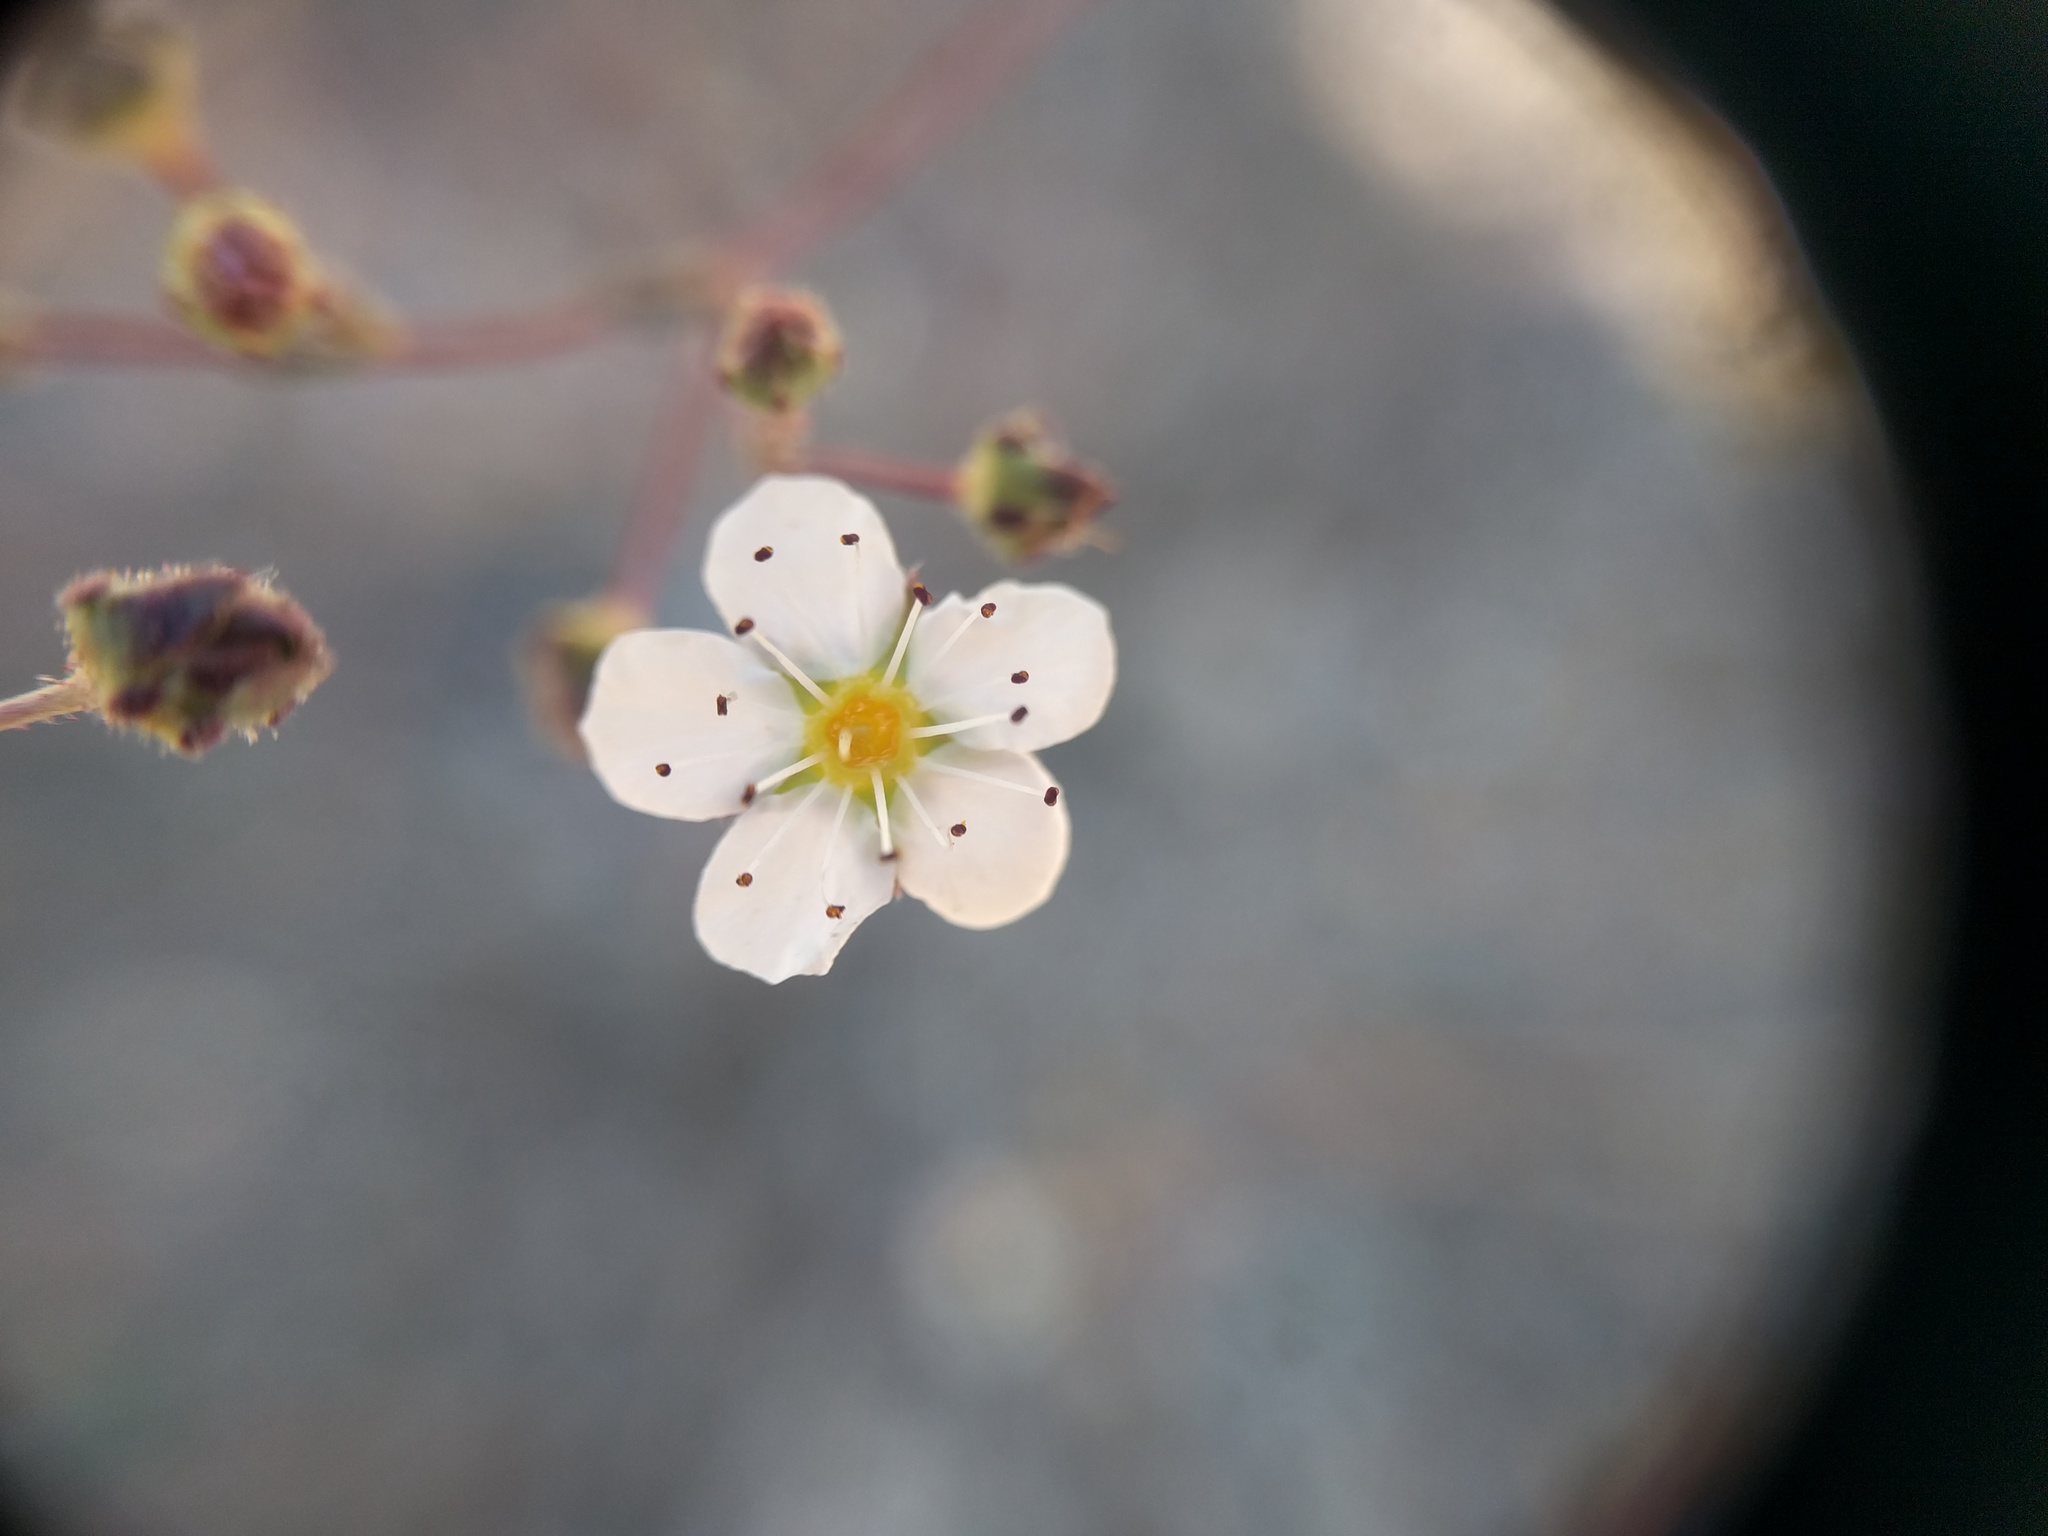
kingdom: Plantae
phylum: Tracheophyta
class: Magnoliopsida
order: Rosales
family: Rosaceae
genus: Potentilla
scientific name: Potentilla santolinoides
